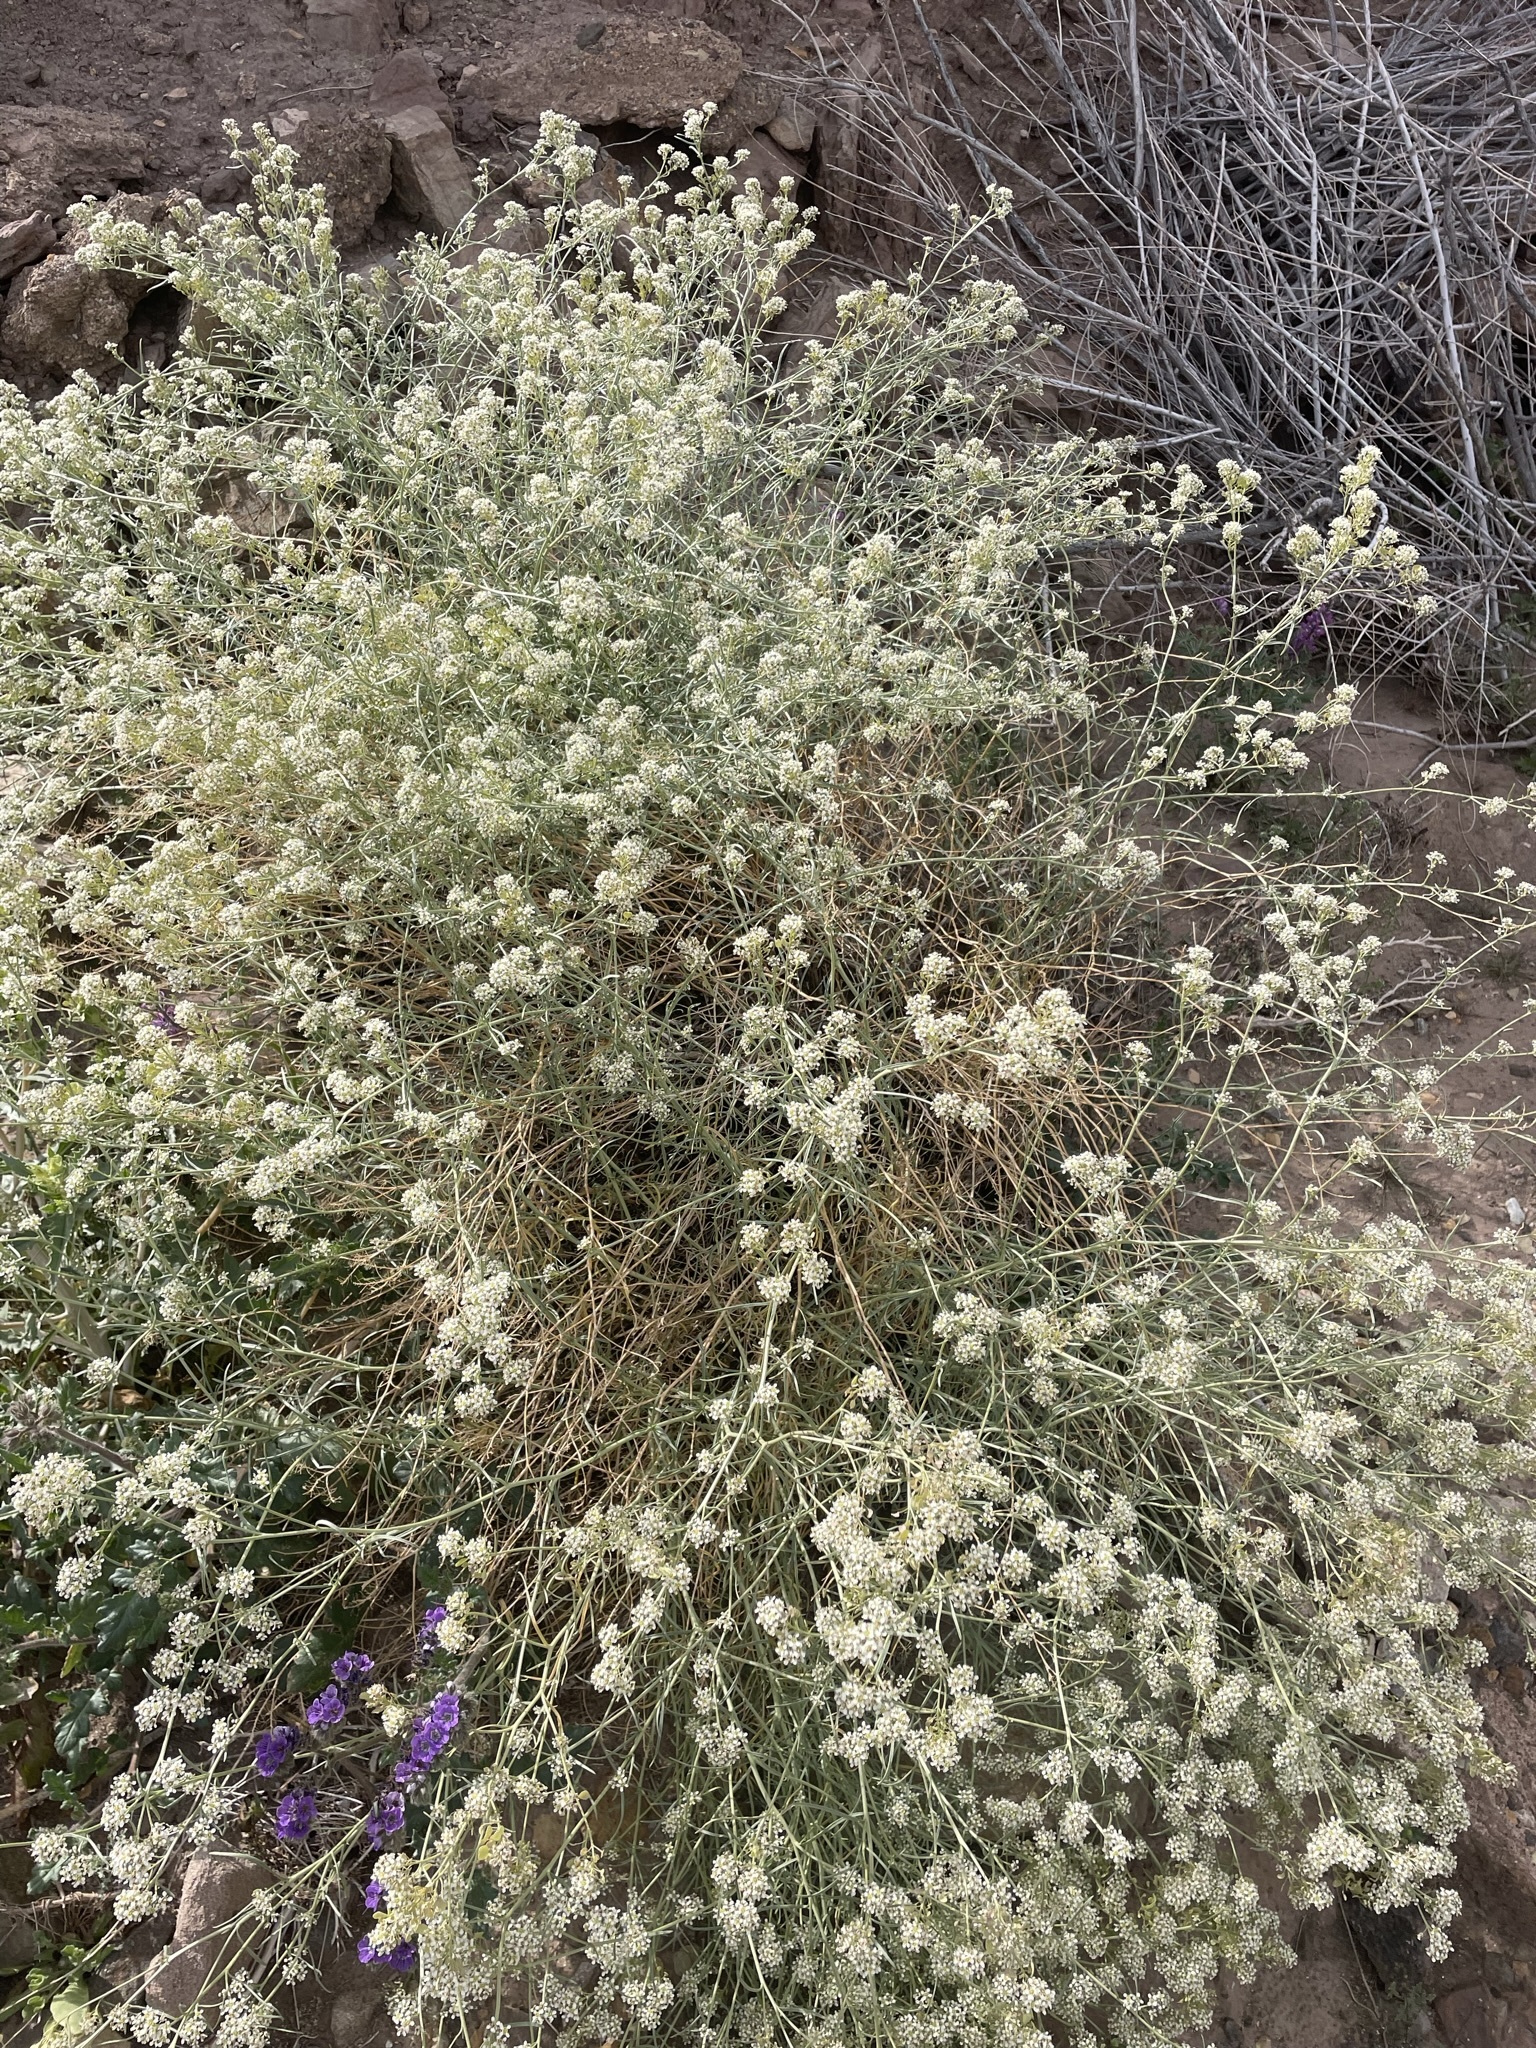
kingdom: Plantae
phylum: Tracheophyta
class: Magnoliopsida
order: Brassicales
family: Brassicaceae
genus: Lepidium
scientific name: Lepidium fremontii
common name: Fremont's pepperwort
